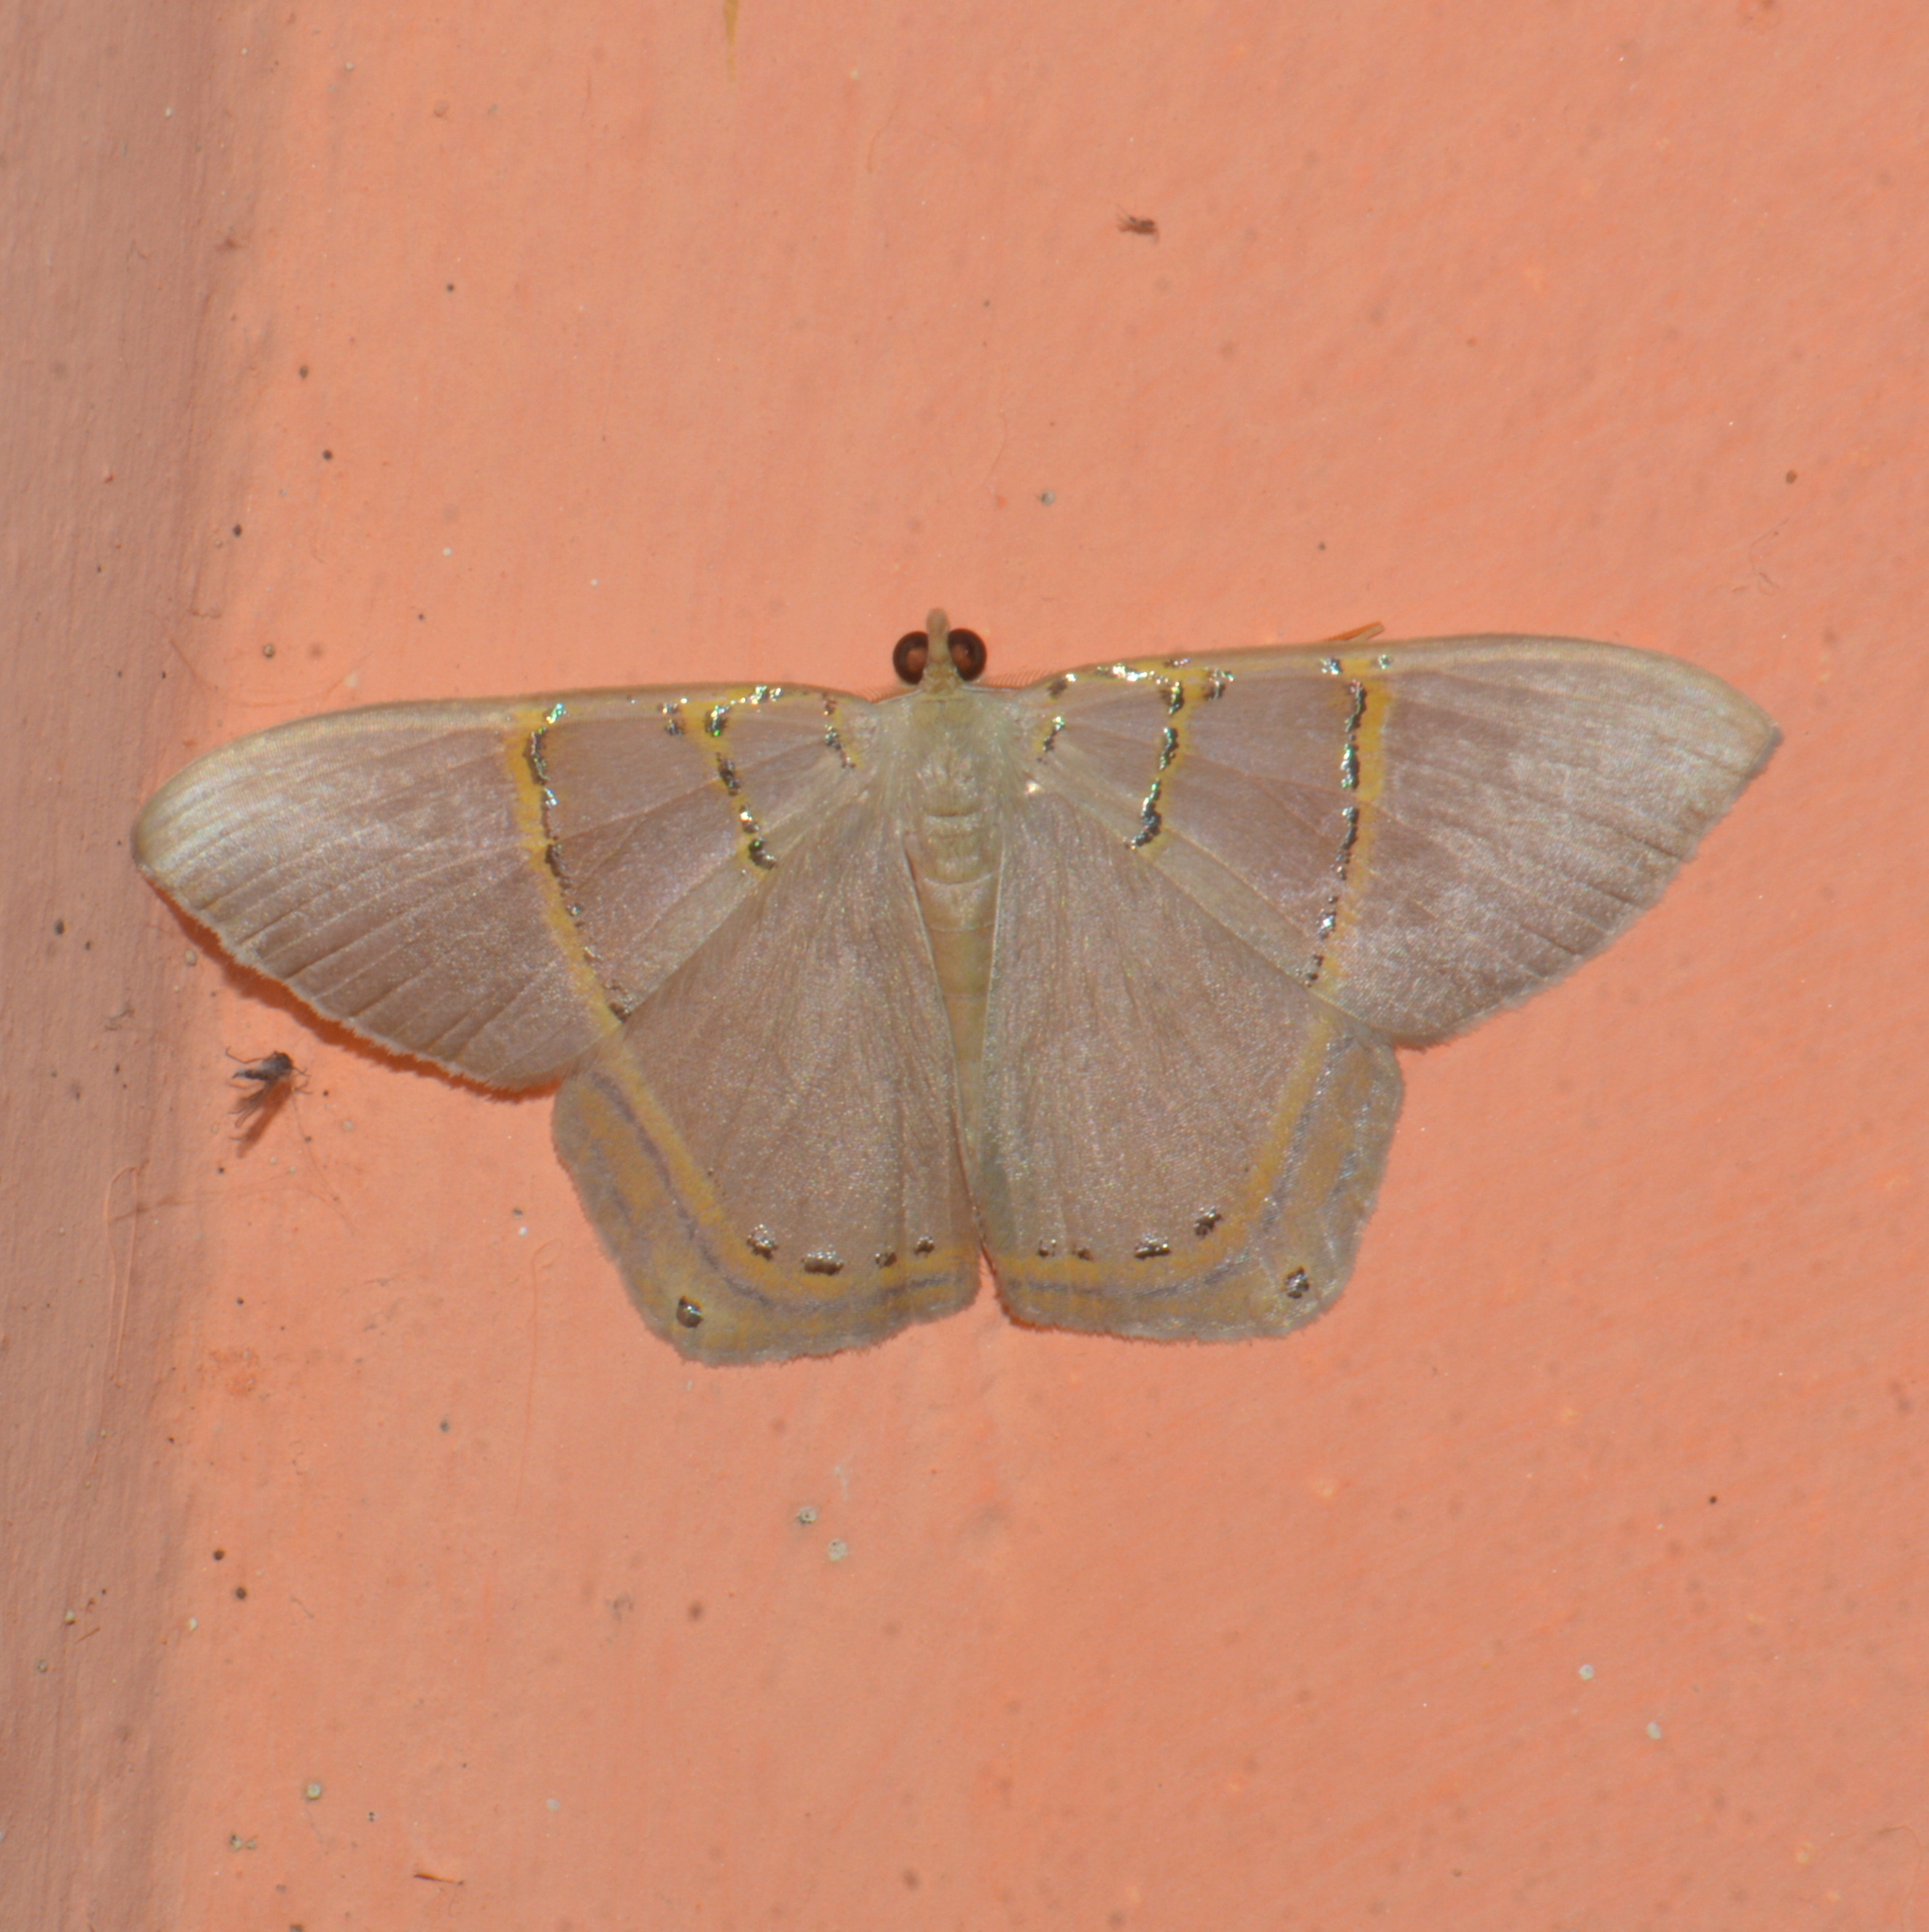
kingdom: Animalia
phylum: Arthropoda
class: Insecta
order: Lepidoptera
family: Geometridae
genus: Phrygionis
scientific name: Phrygionis polita
